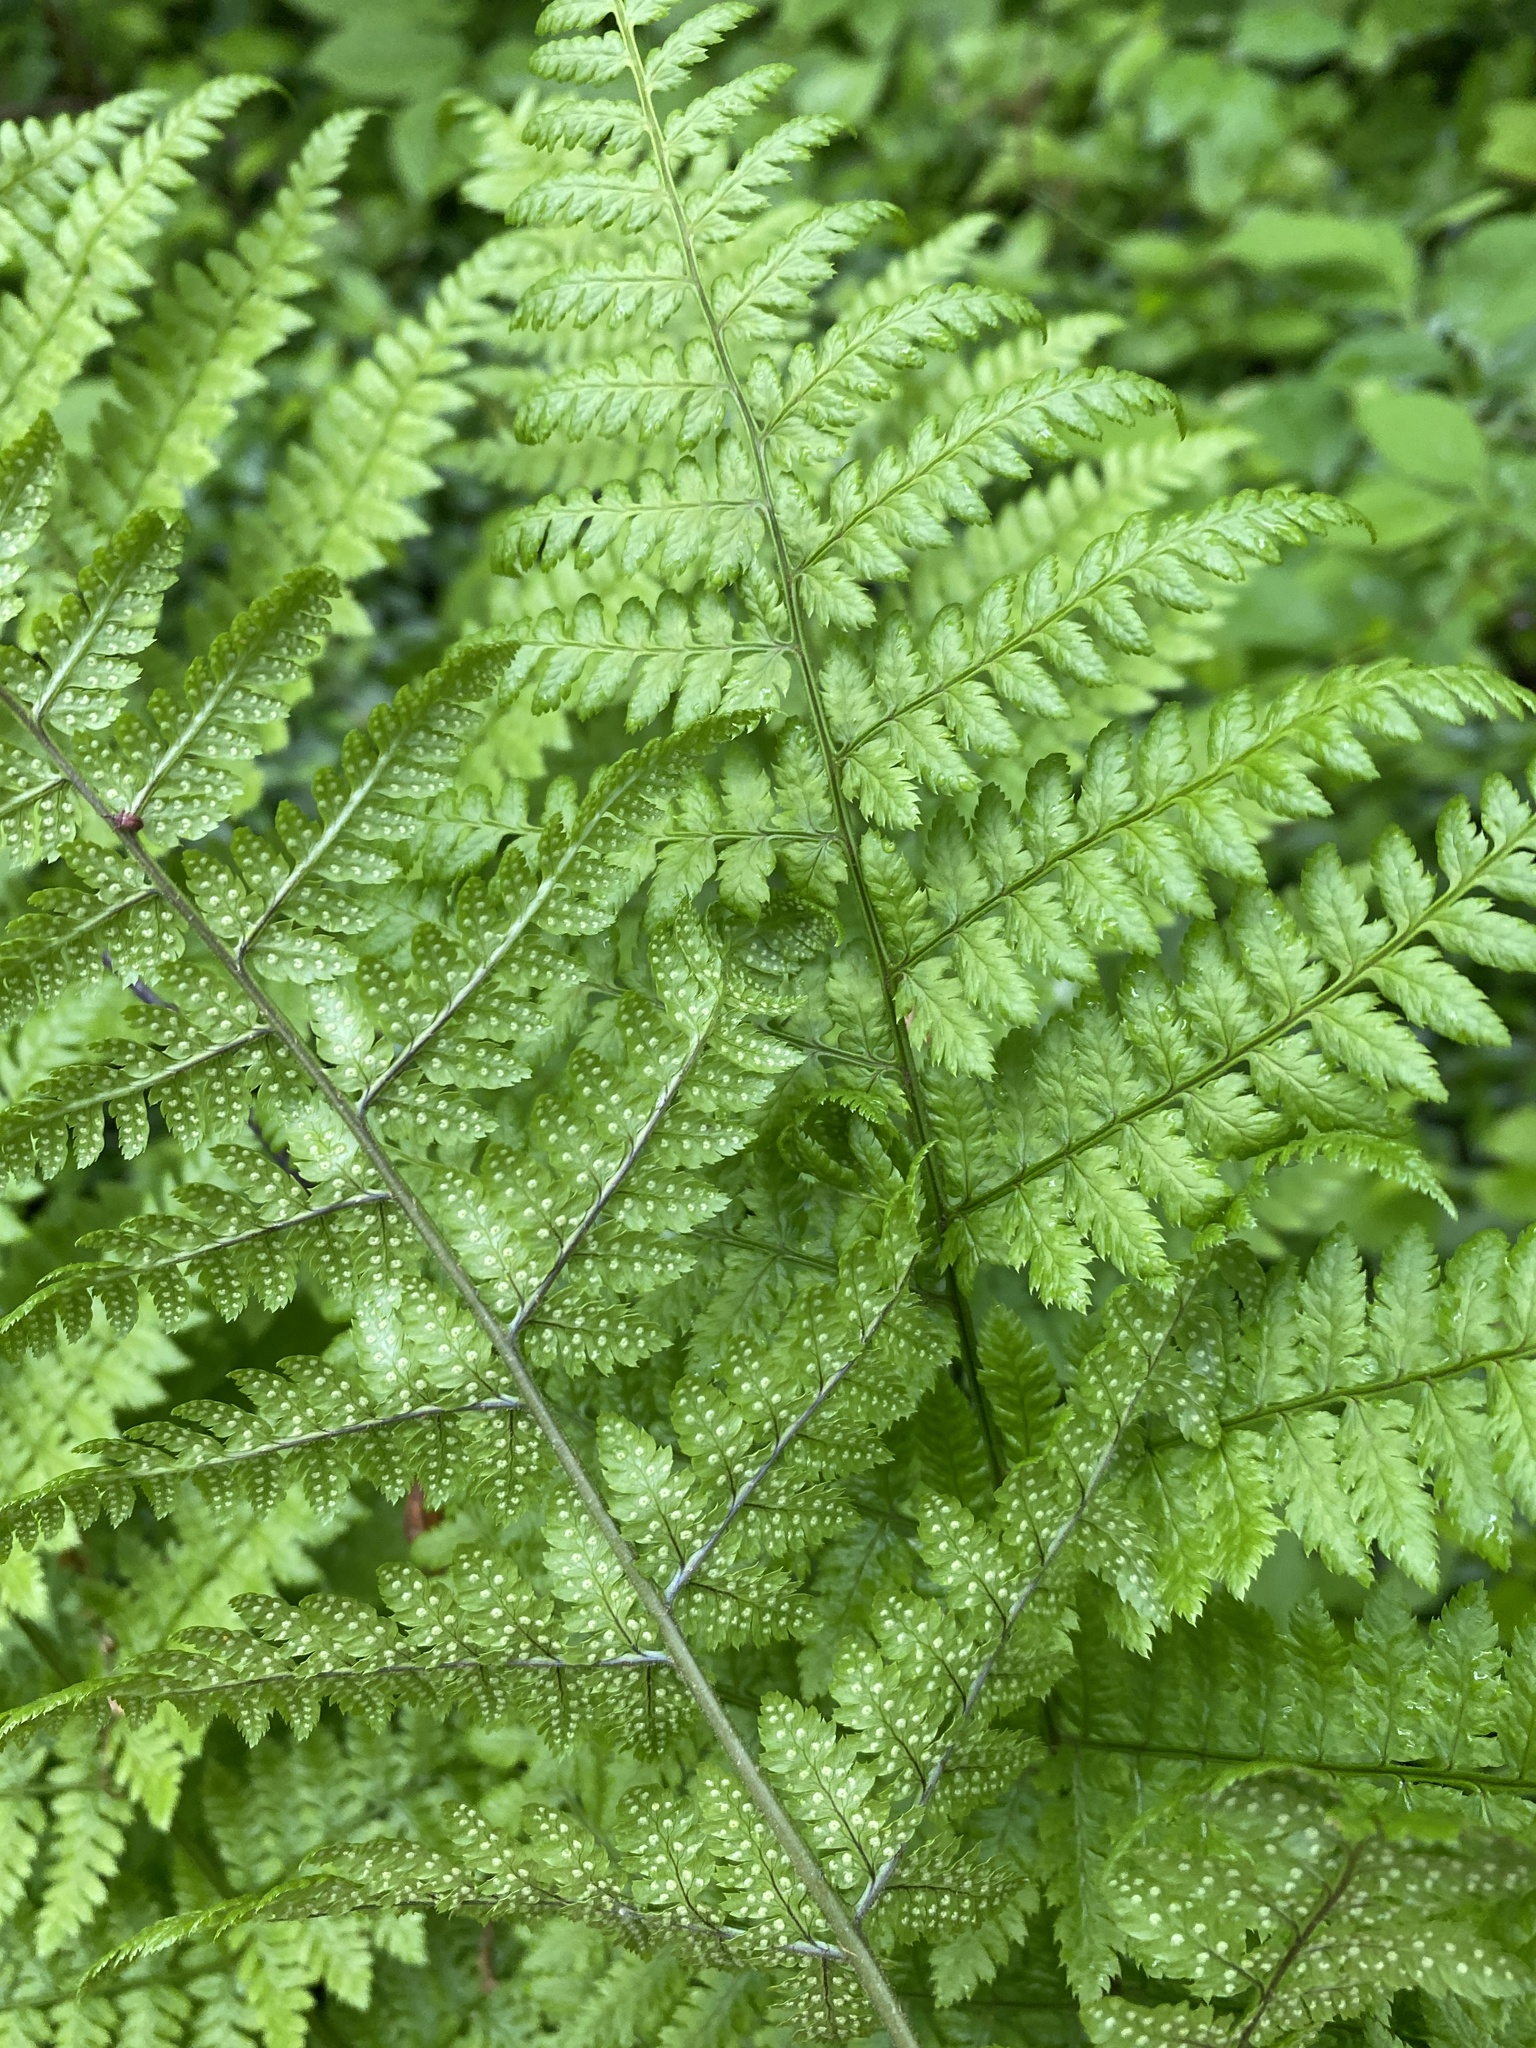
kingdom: Plantae
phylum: Tracheophyta
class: Polypodiopsida
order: Polypodiales
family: Dryopteridaceae
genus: Dryopteris
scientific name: Dryopteris intermedia
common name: Evergreen wood fern
